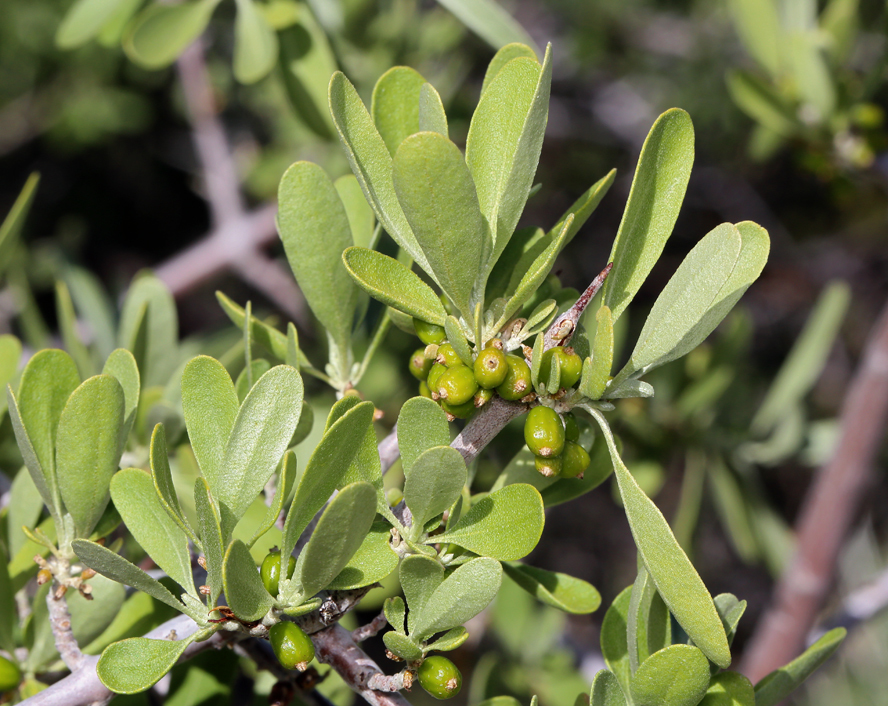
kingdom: Plantae
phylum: Tracheophyta
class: Magnoliopsida
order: Rosales
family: Elaeagnaceae
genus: Shepherdia
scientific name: Shepherdia argentea
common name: Silver buffaloberry
